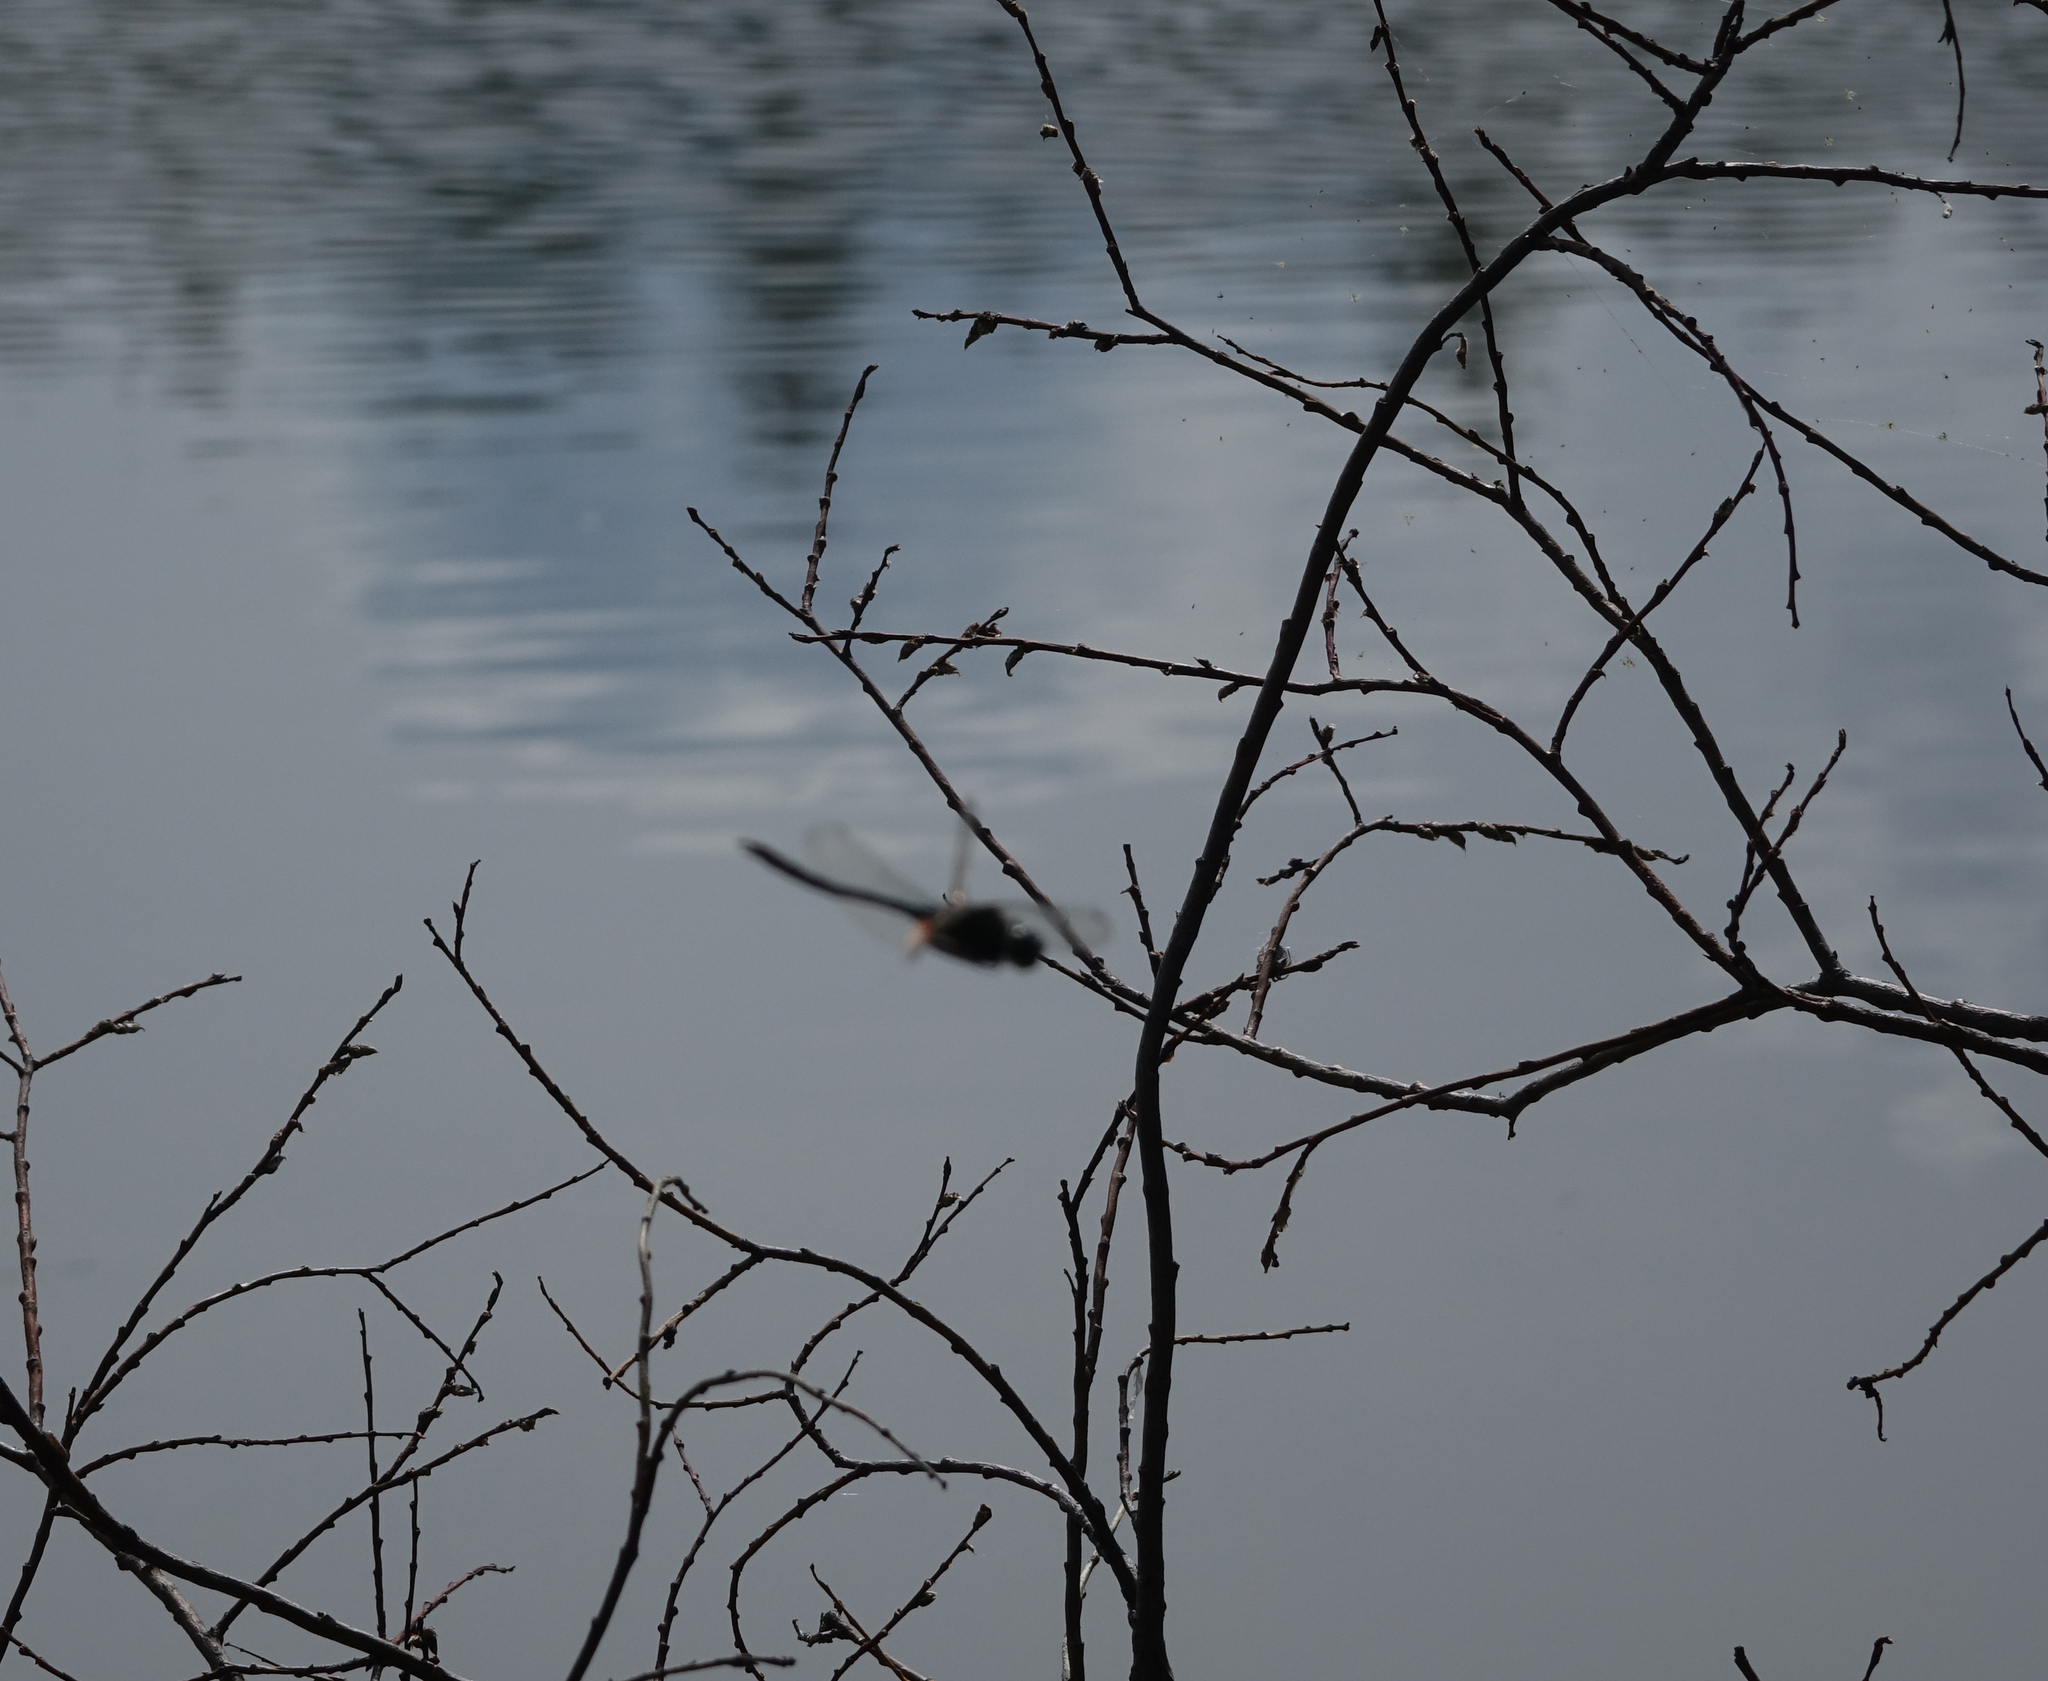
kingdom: Animalia
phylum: Arthropoda
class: Insecta
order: Odonata
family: Corduliidae
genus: Somatochlora
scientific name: Somatochlora graeseri
